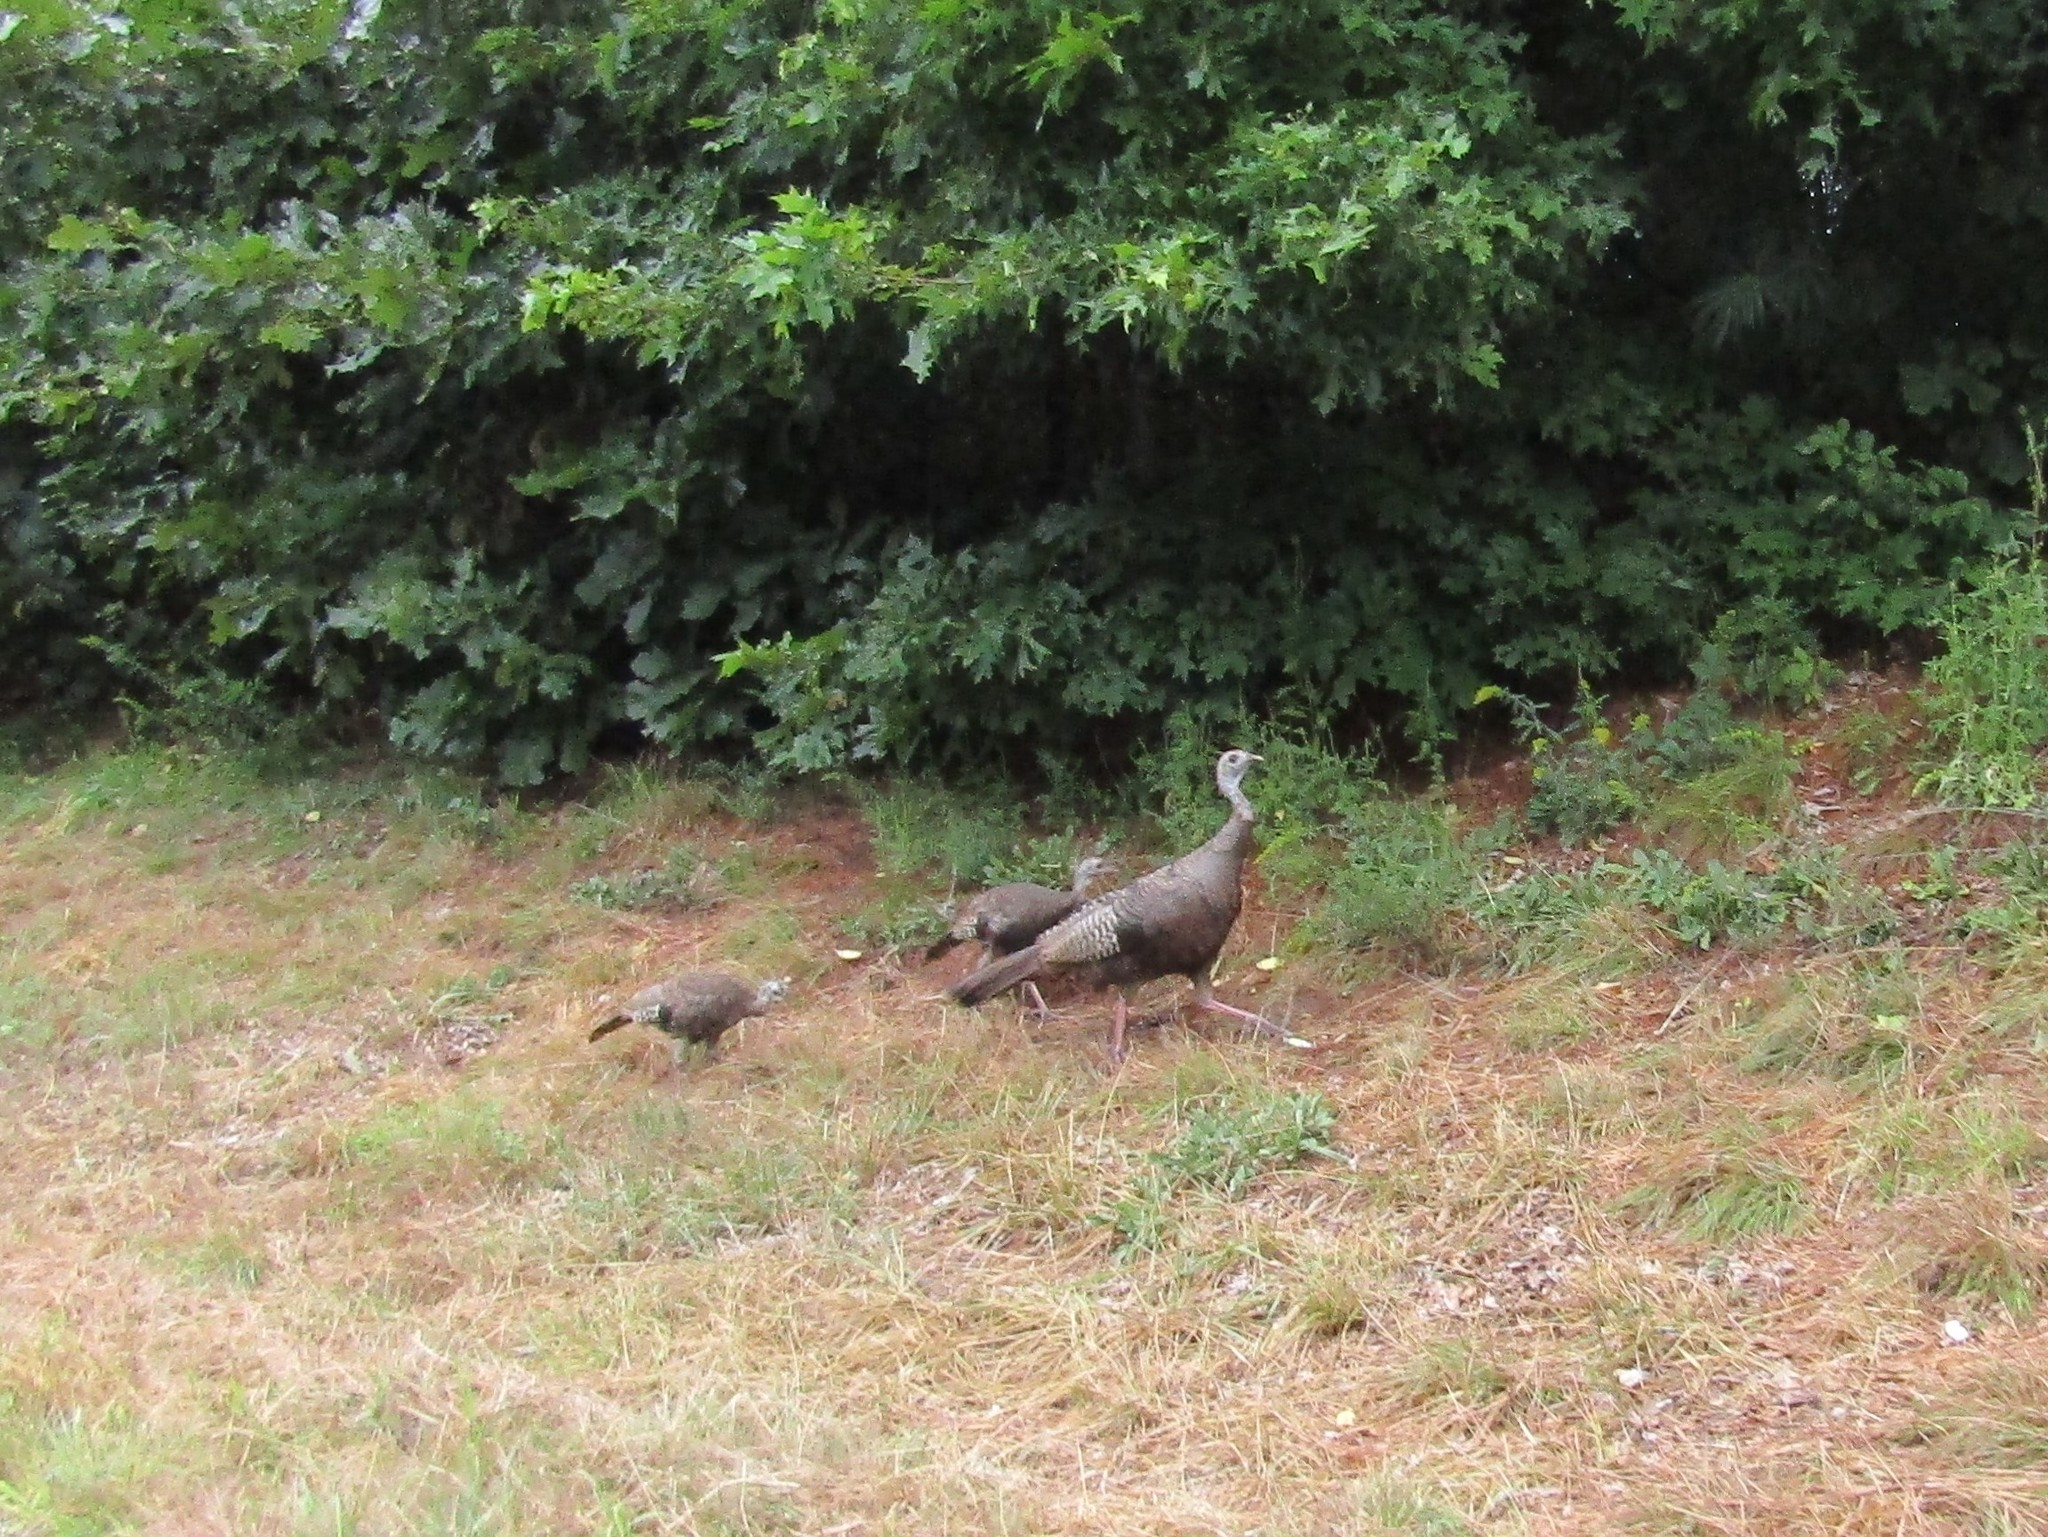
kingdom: Animalia
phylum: Chordata
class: Aves
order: Galliformes
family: Phasianidae
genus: Meleagris
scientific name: Meleagris gallopavo
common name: Wild turkey
